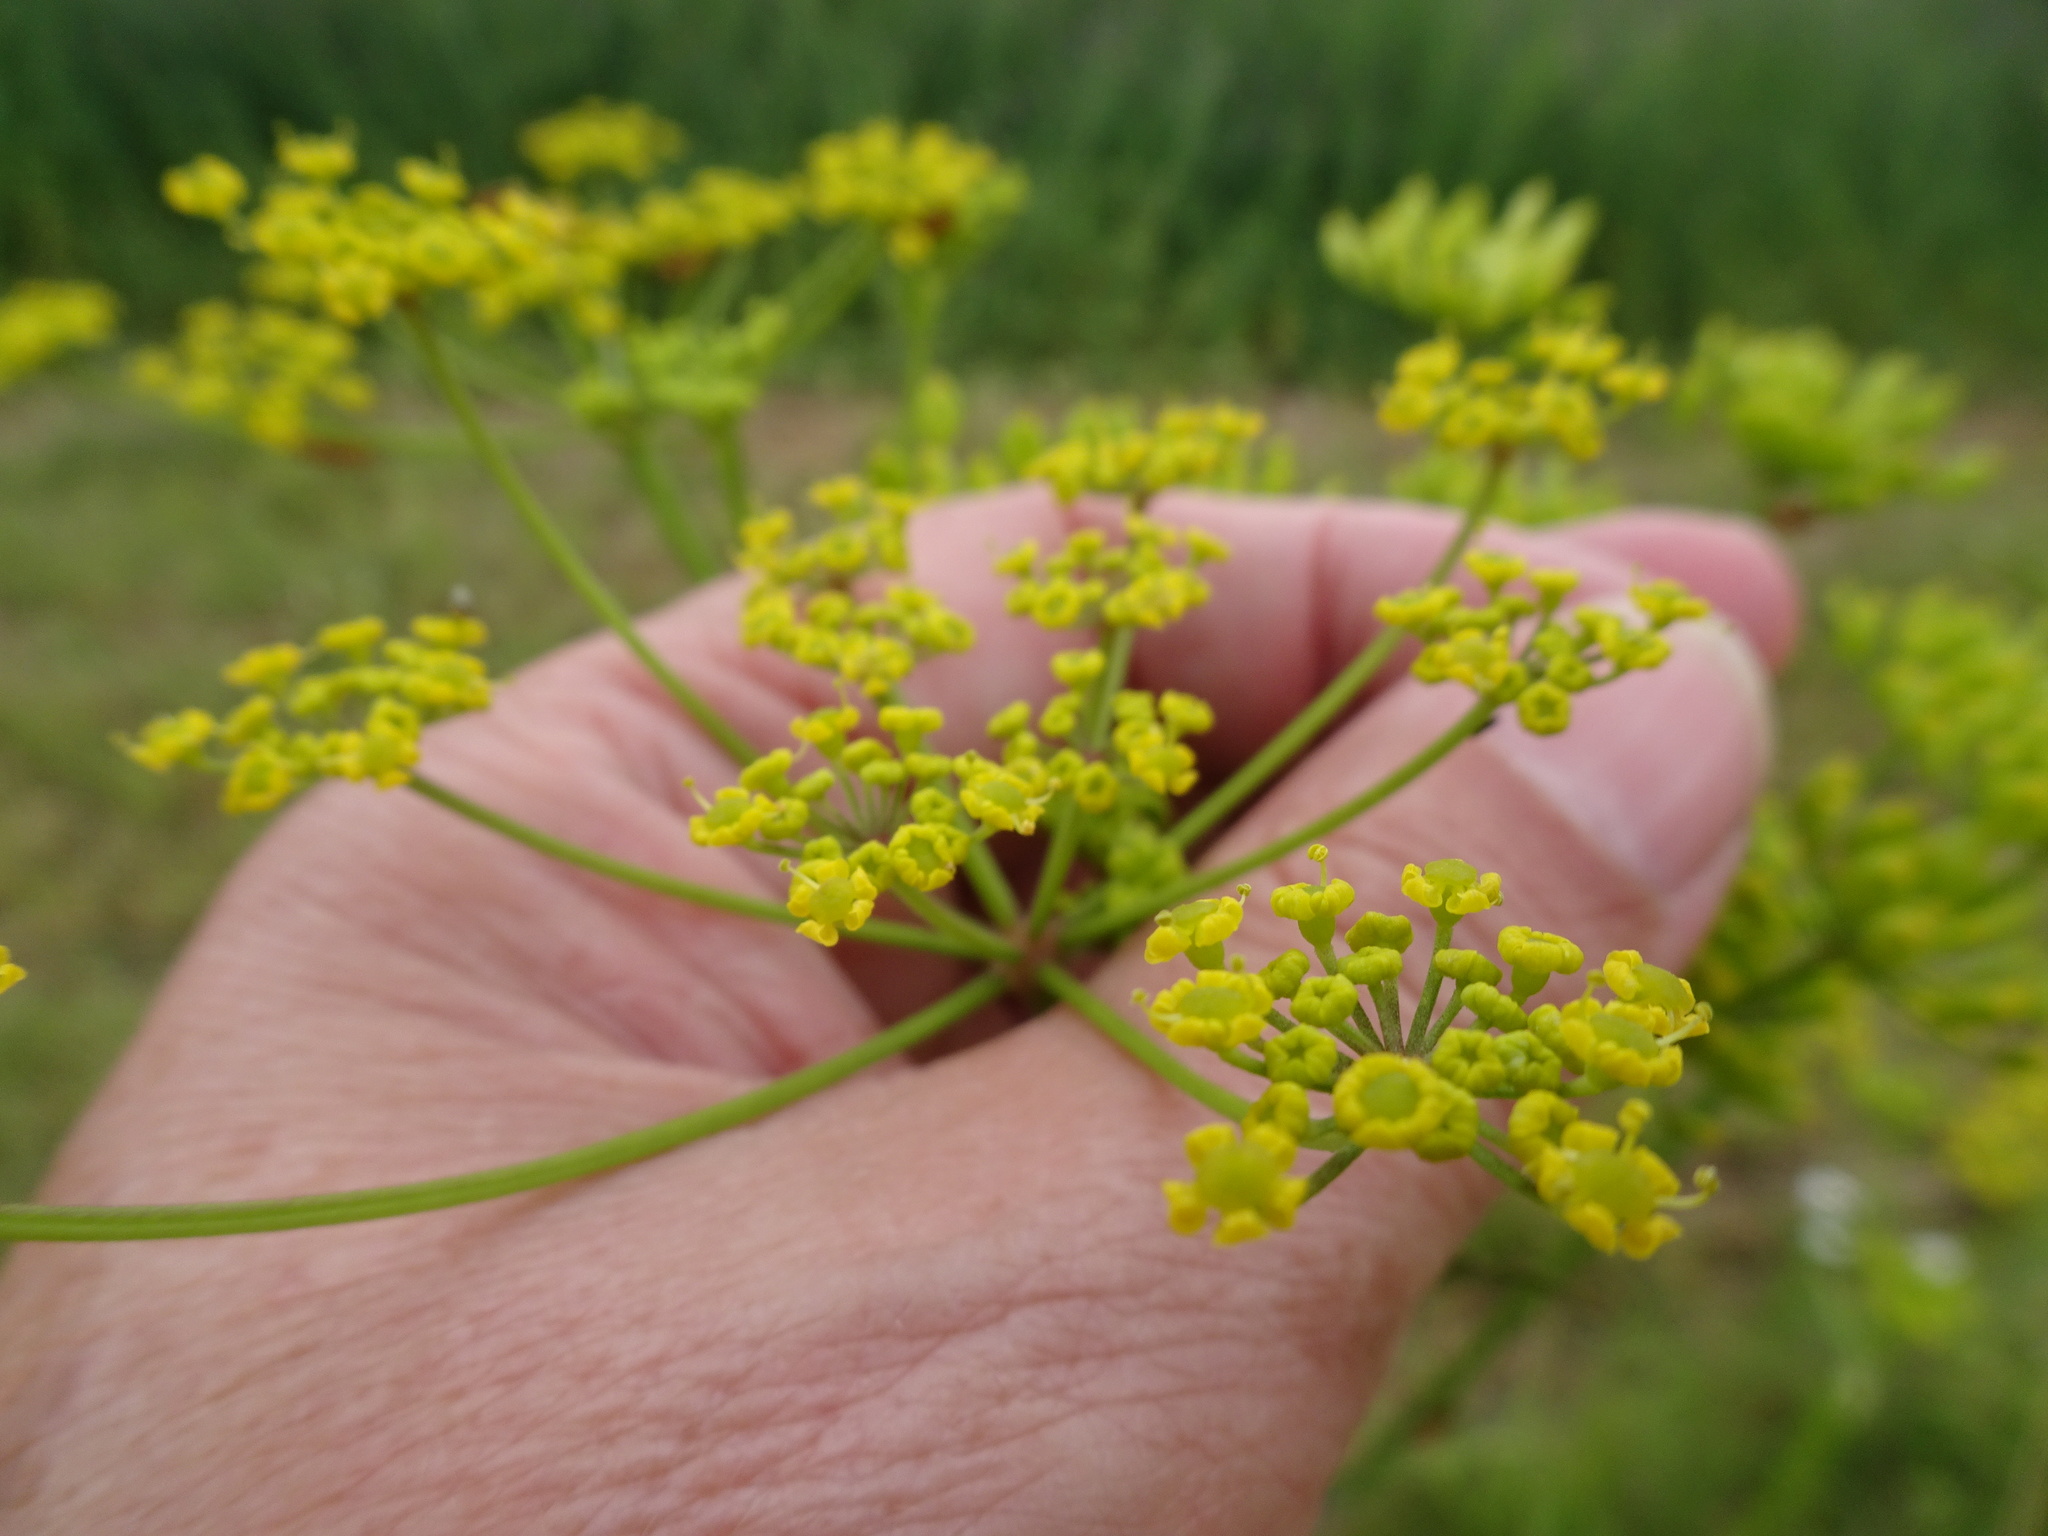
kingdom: Plantae
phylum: Tracheophyta
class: Magnoliopsida
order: Apiales
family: Apiaceae
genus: Pastinaca
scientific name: Pastinaca sativa
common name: Wild parsnip
